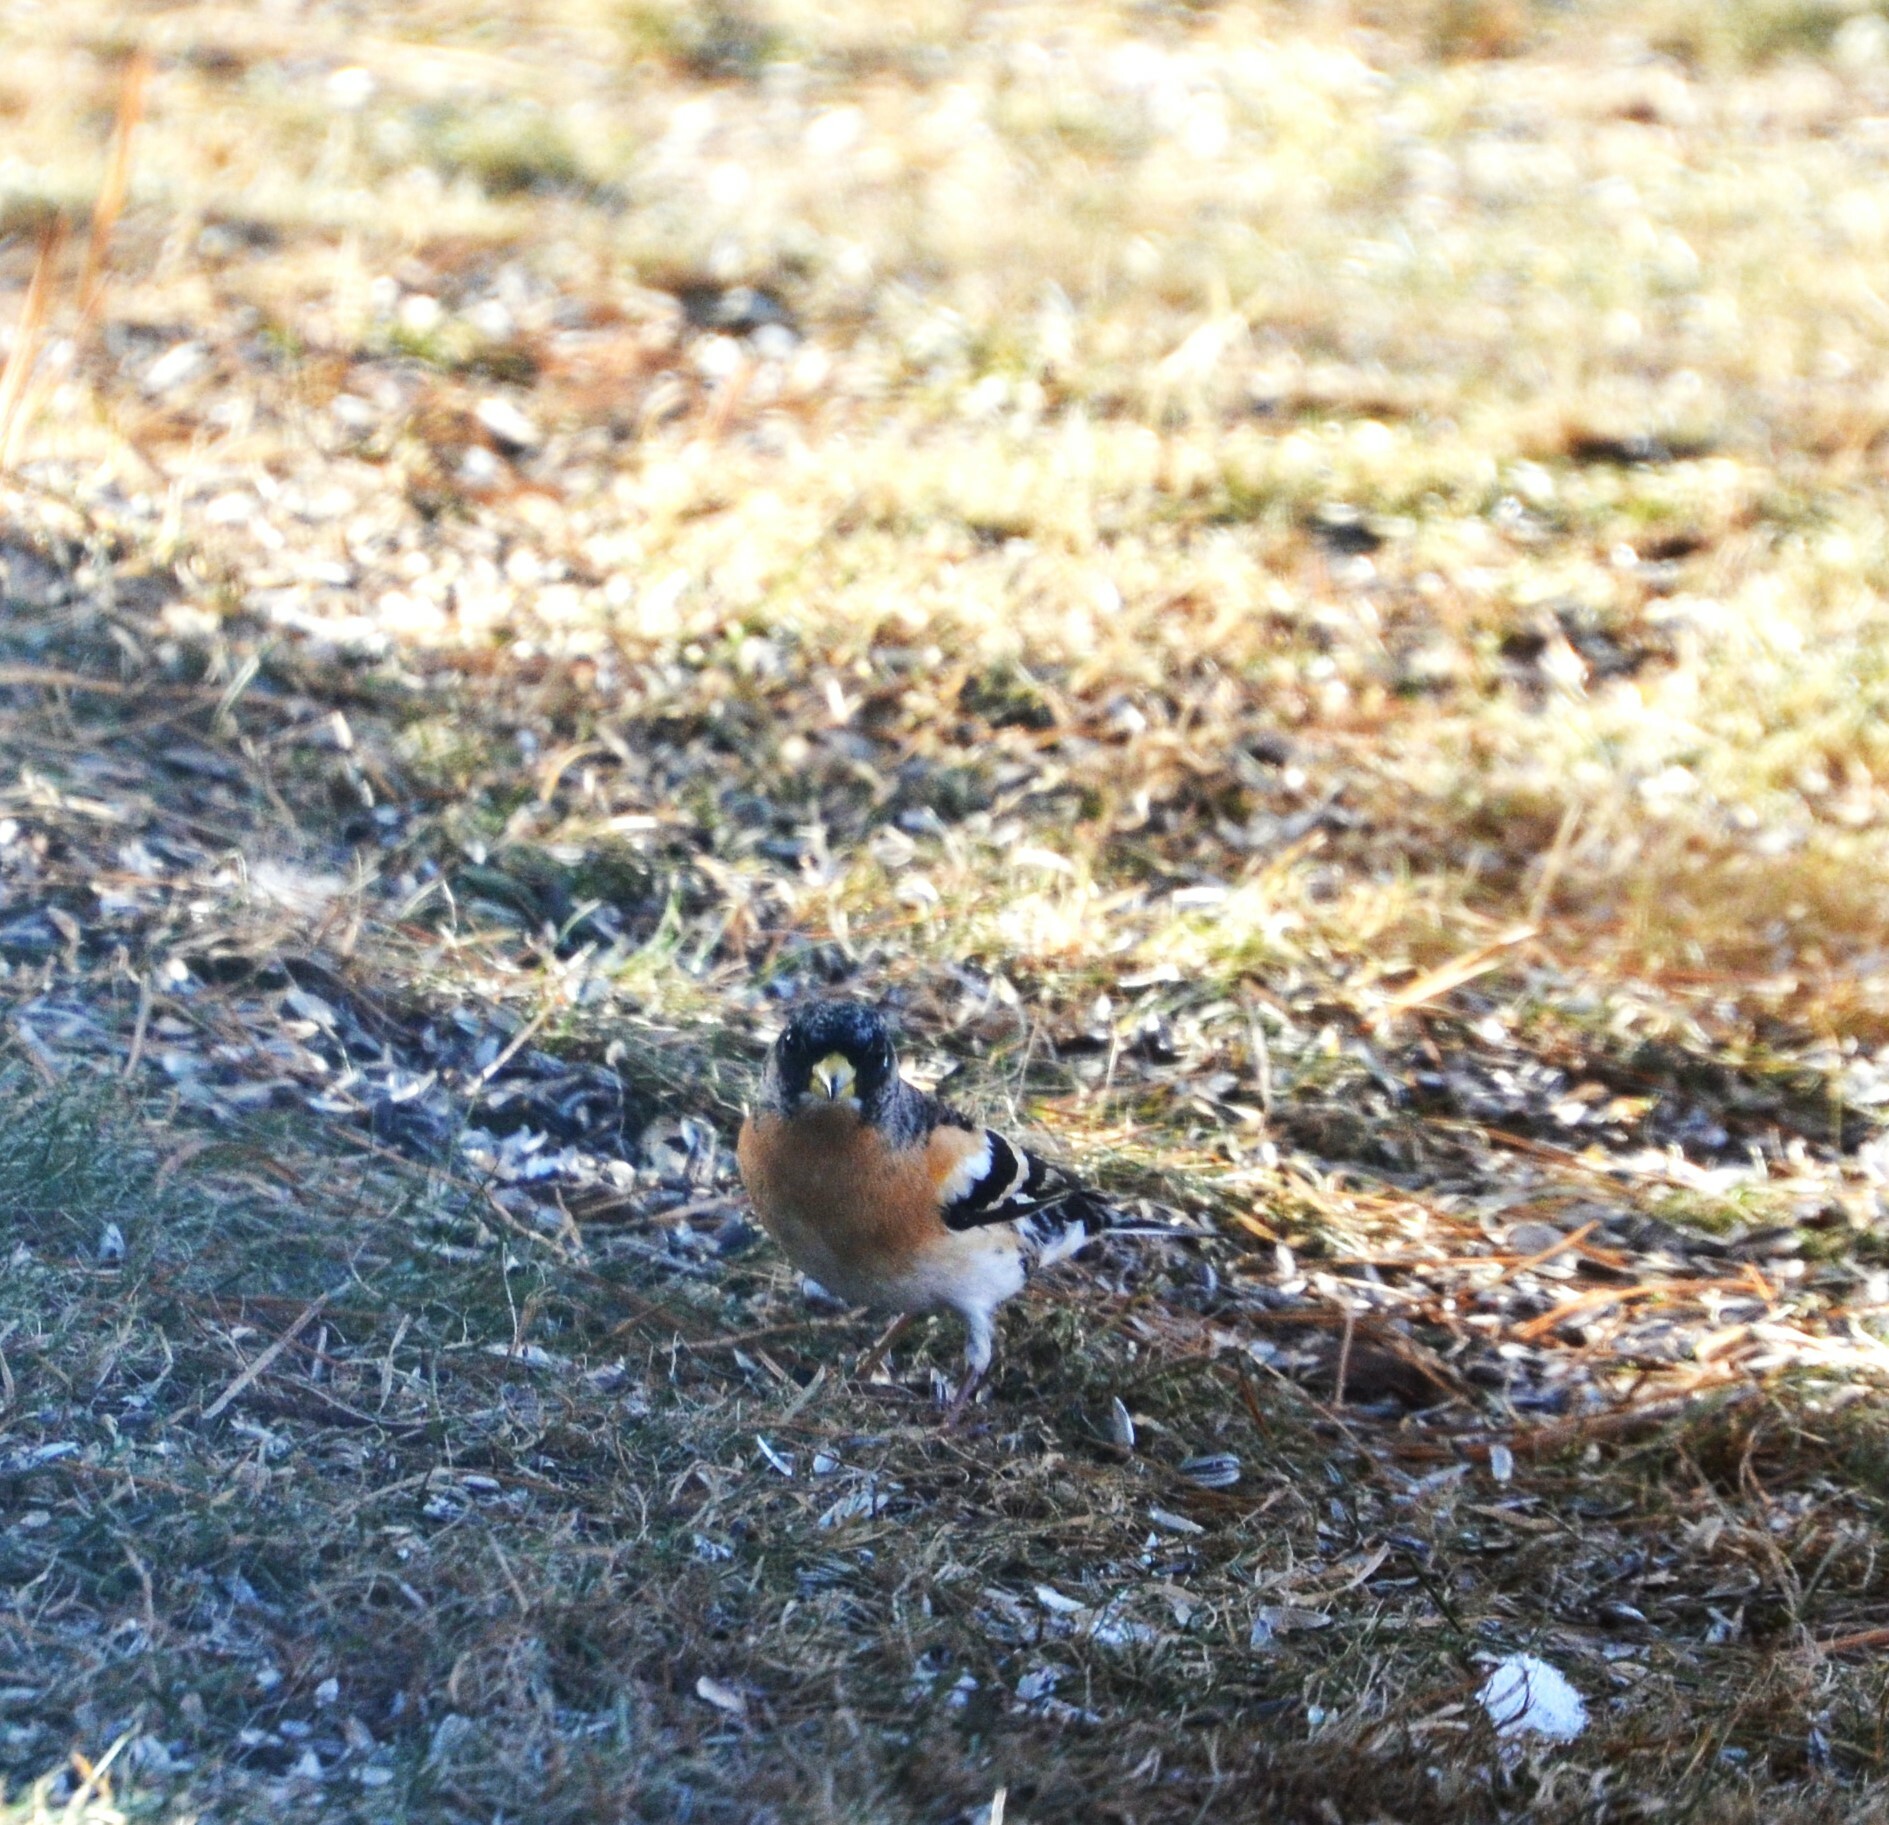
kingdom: Animalia
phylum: Chordata
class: Aves
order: Passeriformes
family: Fringillidae
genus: Fringilla
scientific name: Fringilla montifringilla
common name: Brambling
